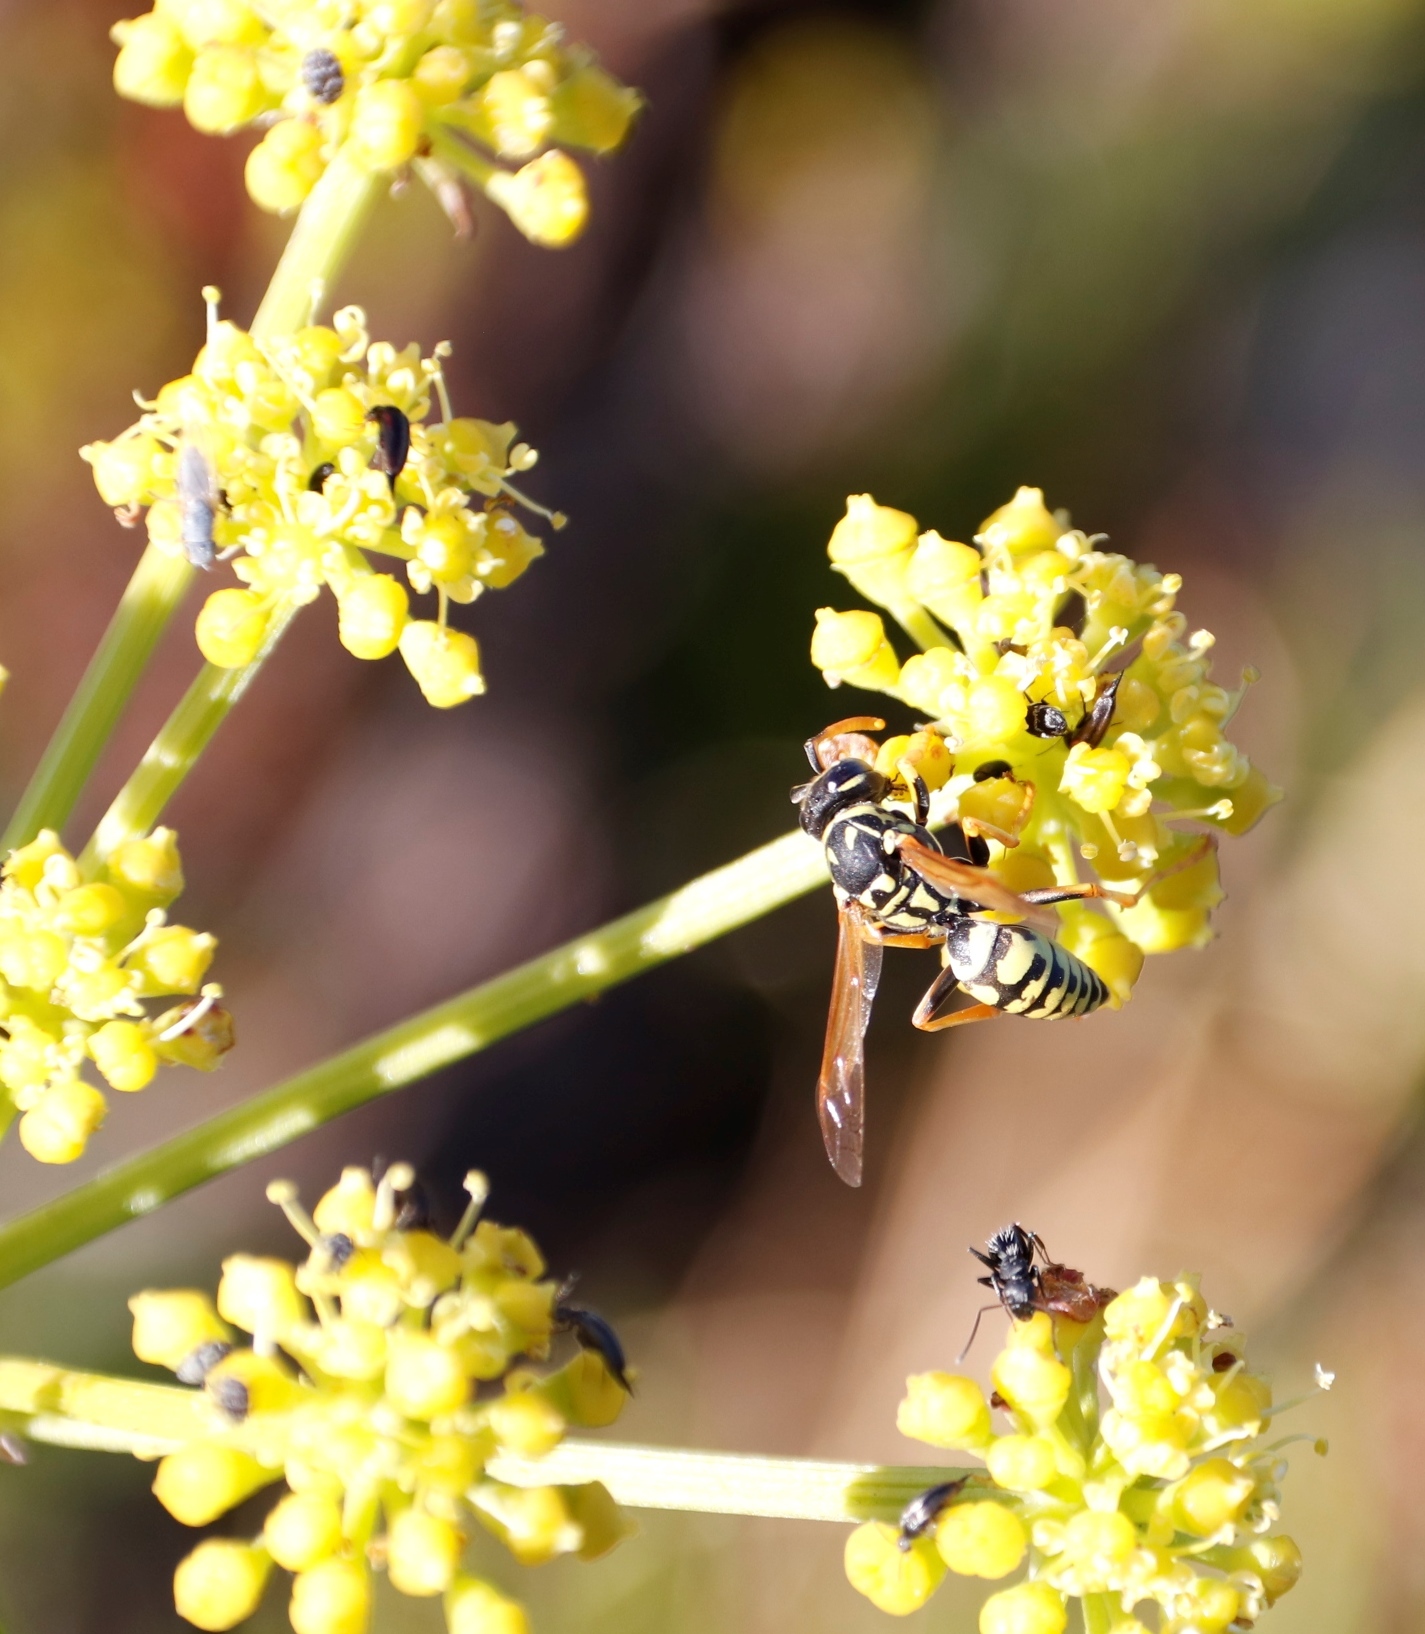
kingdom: Animalia
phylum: Arthropoda
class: Insecta
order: Hymenoptera
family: Formicidae
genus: Camponotus
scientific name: Camponotus niveosetosus
